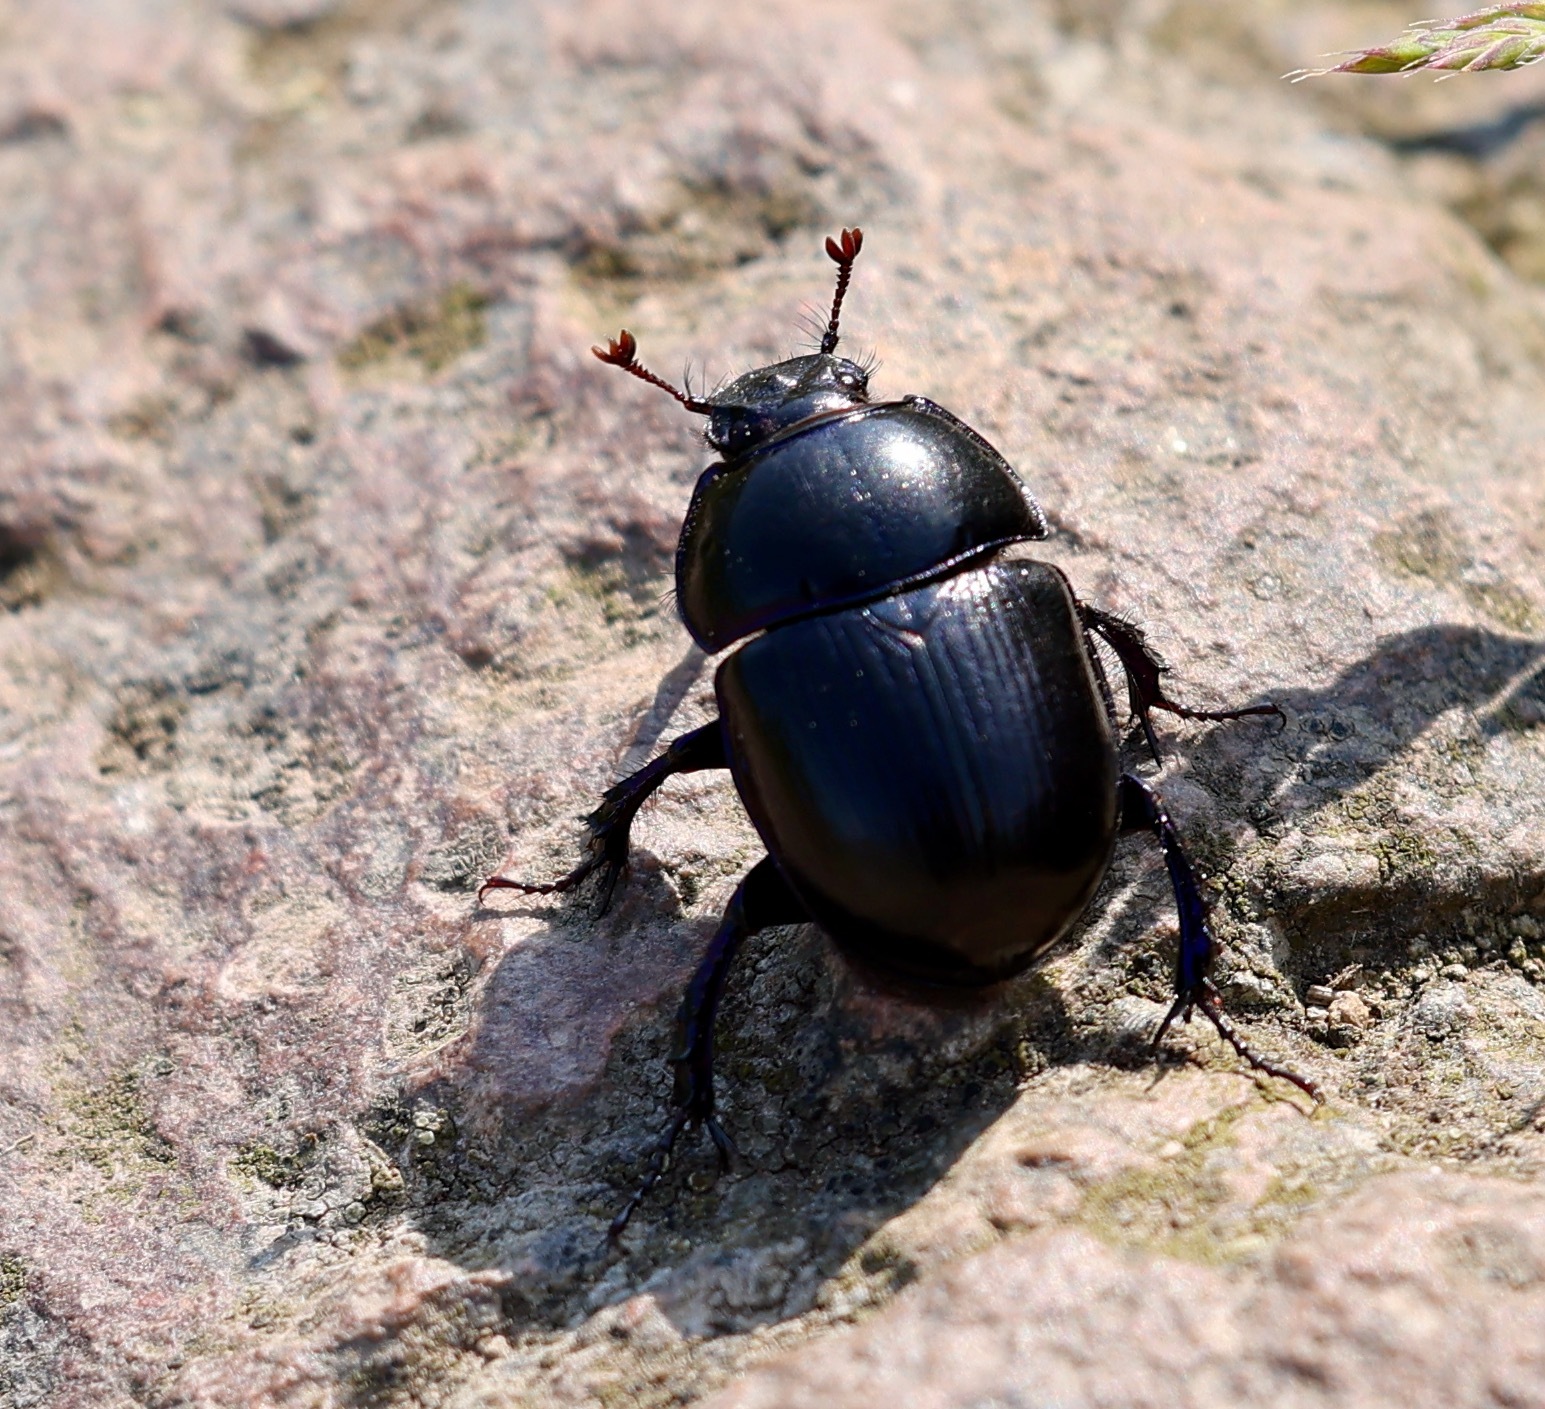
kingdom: Animalia
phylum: Arthropoda
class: Insecta
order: Coleoptera
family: Geotrupidae
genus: Anoplotrupes
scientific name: Anoplotrupes stercorosus
